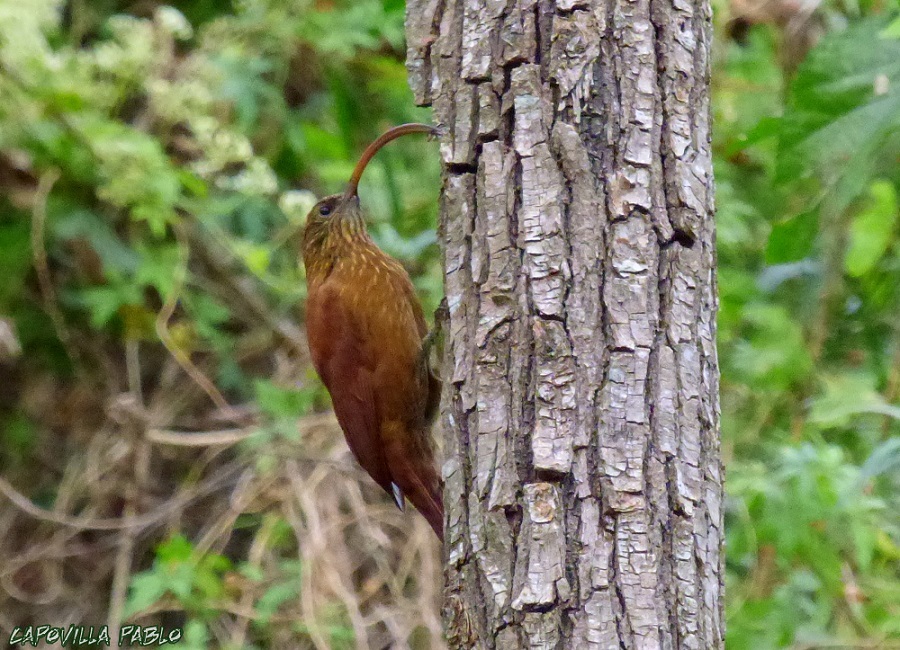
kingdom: Animalia
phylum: Chordata
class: Aves
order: Passeriformes
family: Furnariidae
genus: Campylorhamphus
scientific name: Campylorhamphus trochilirostris
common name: Red-billed scythebill
